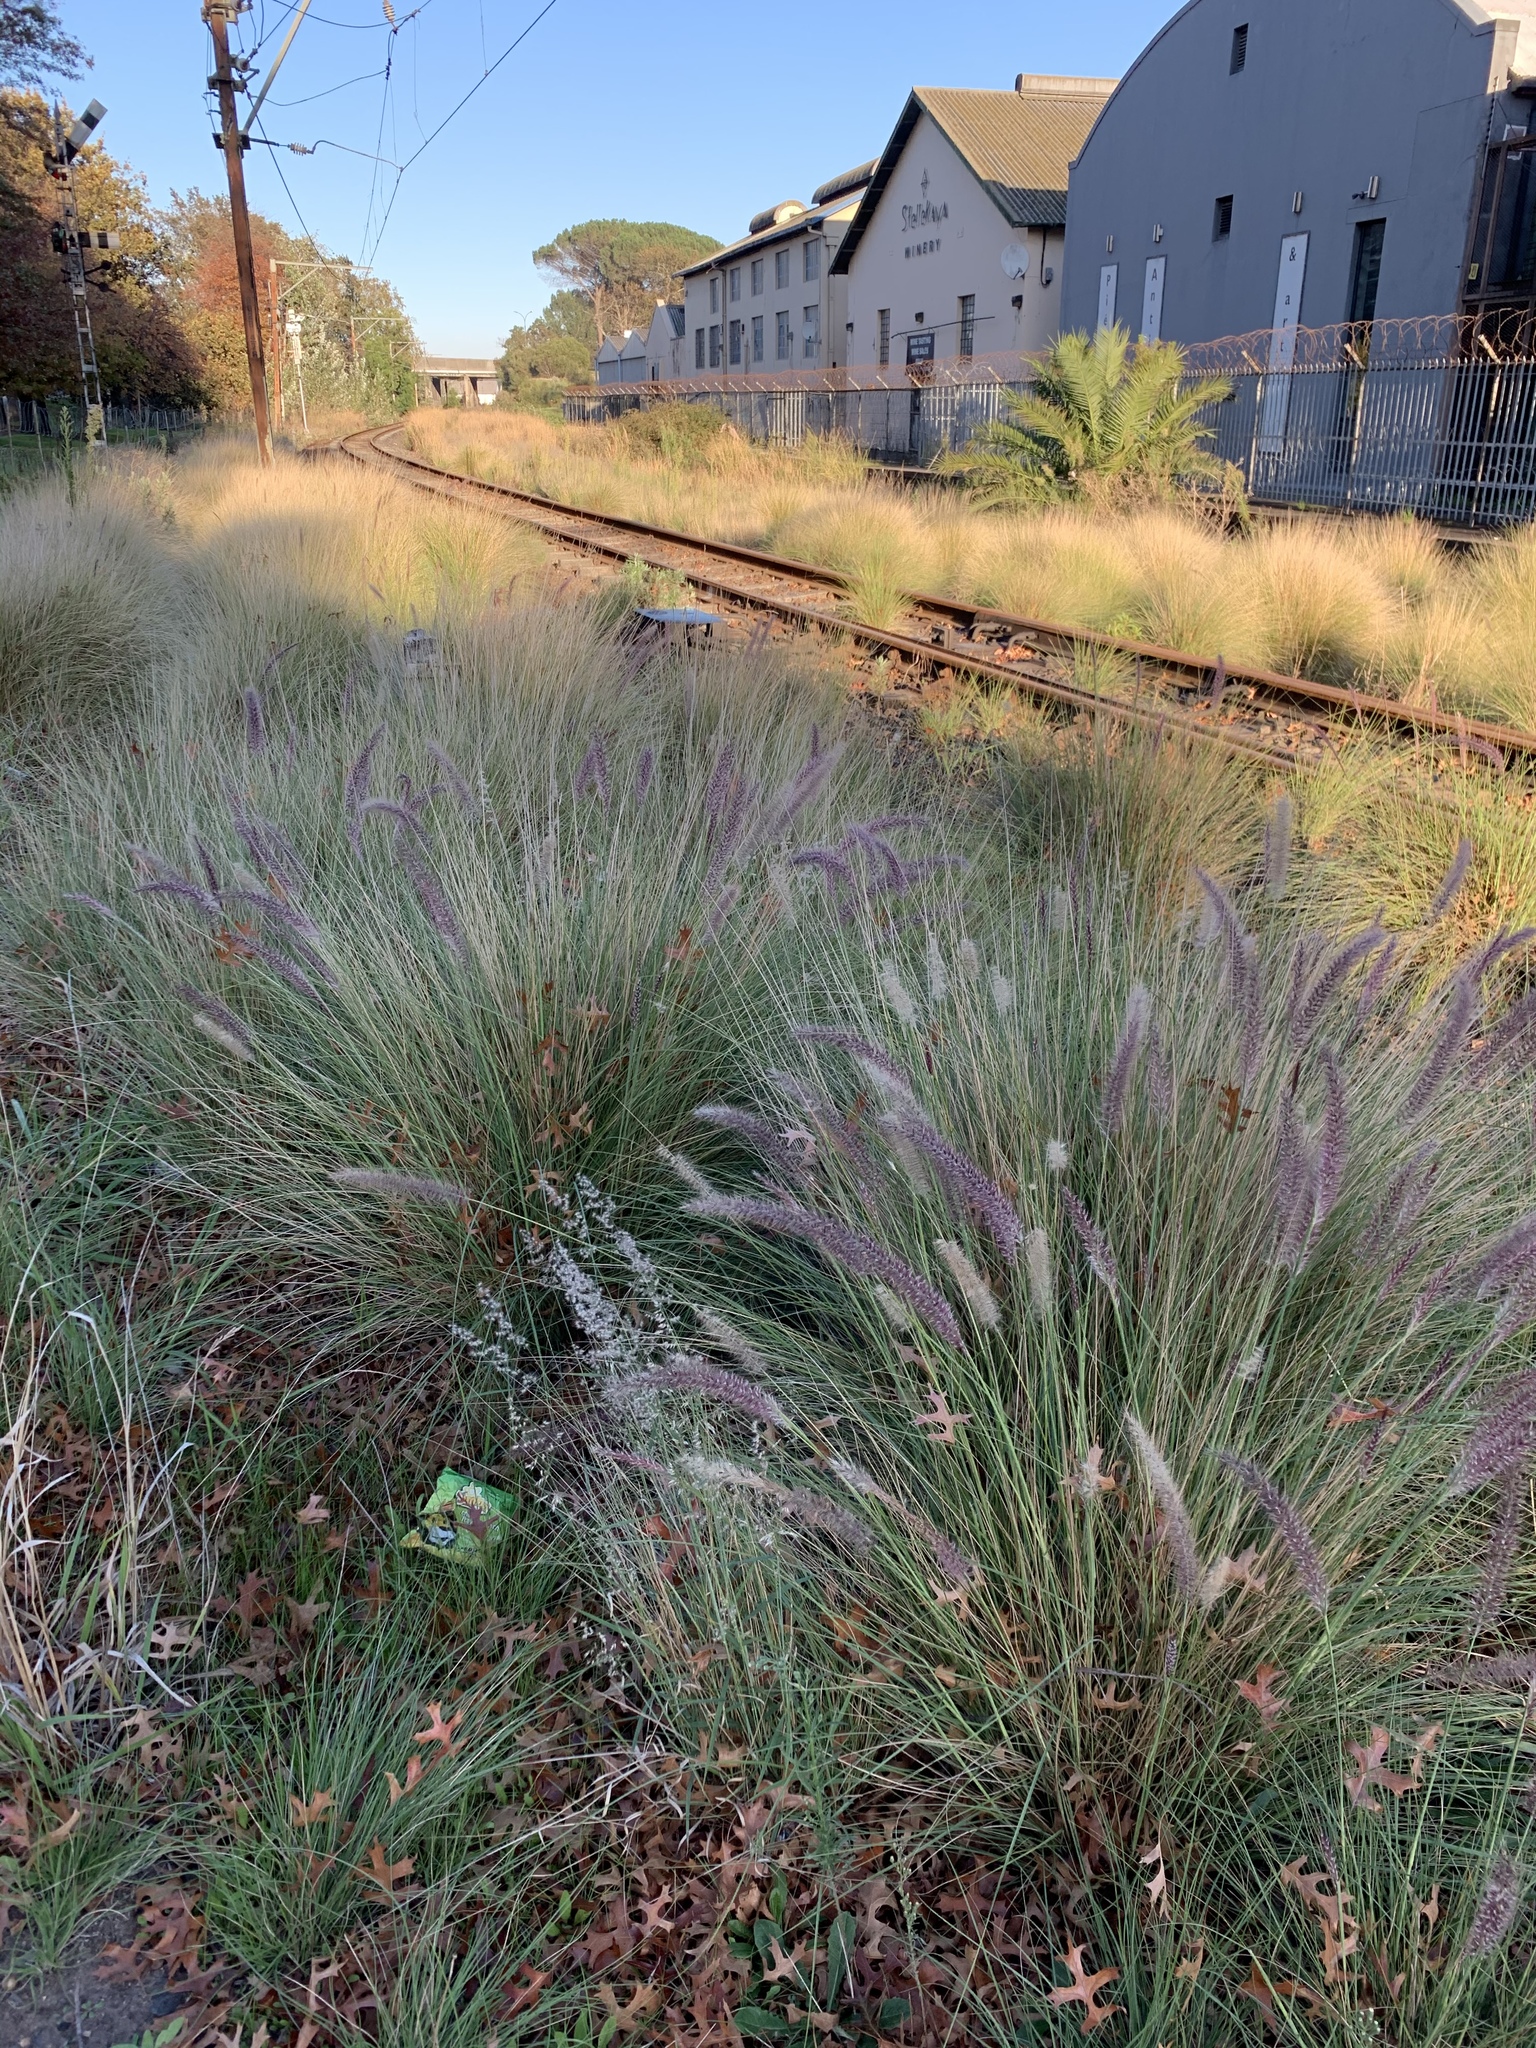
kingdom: Plantae
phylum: Tracheophyta
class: Liliopsida
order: Poales
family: Poaceae
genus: Cenchrus
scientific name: Cenchrus setaceus
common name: Crimson fountaingrass
